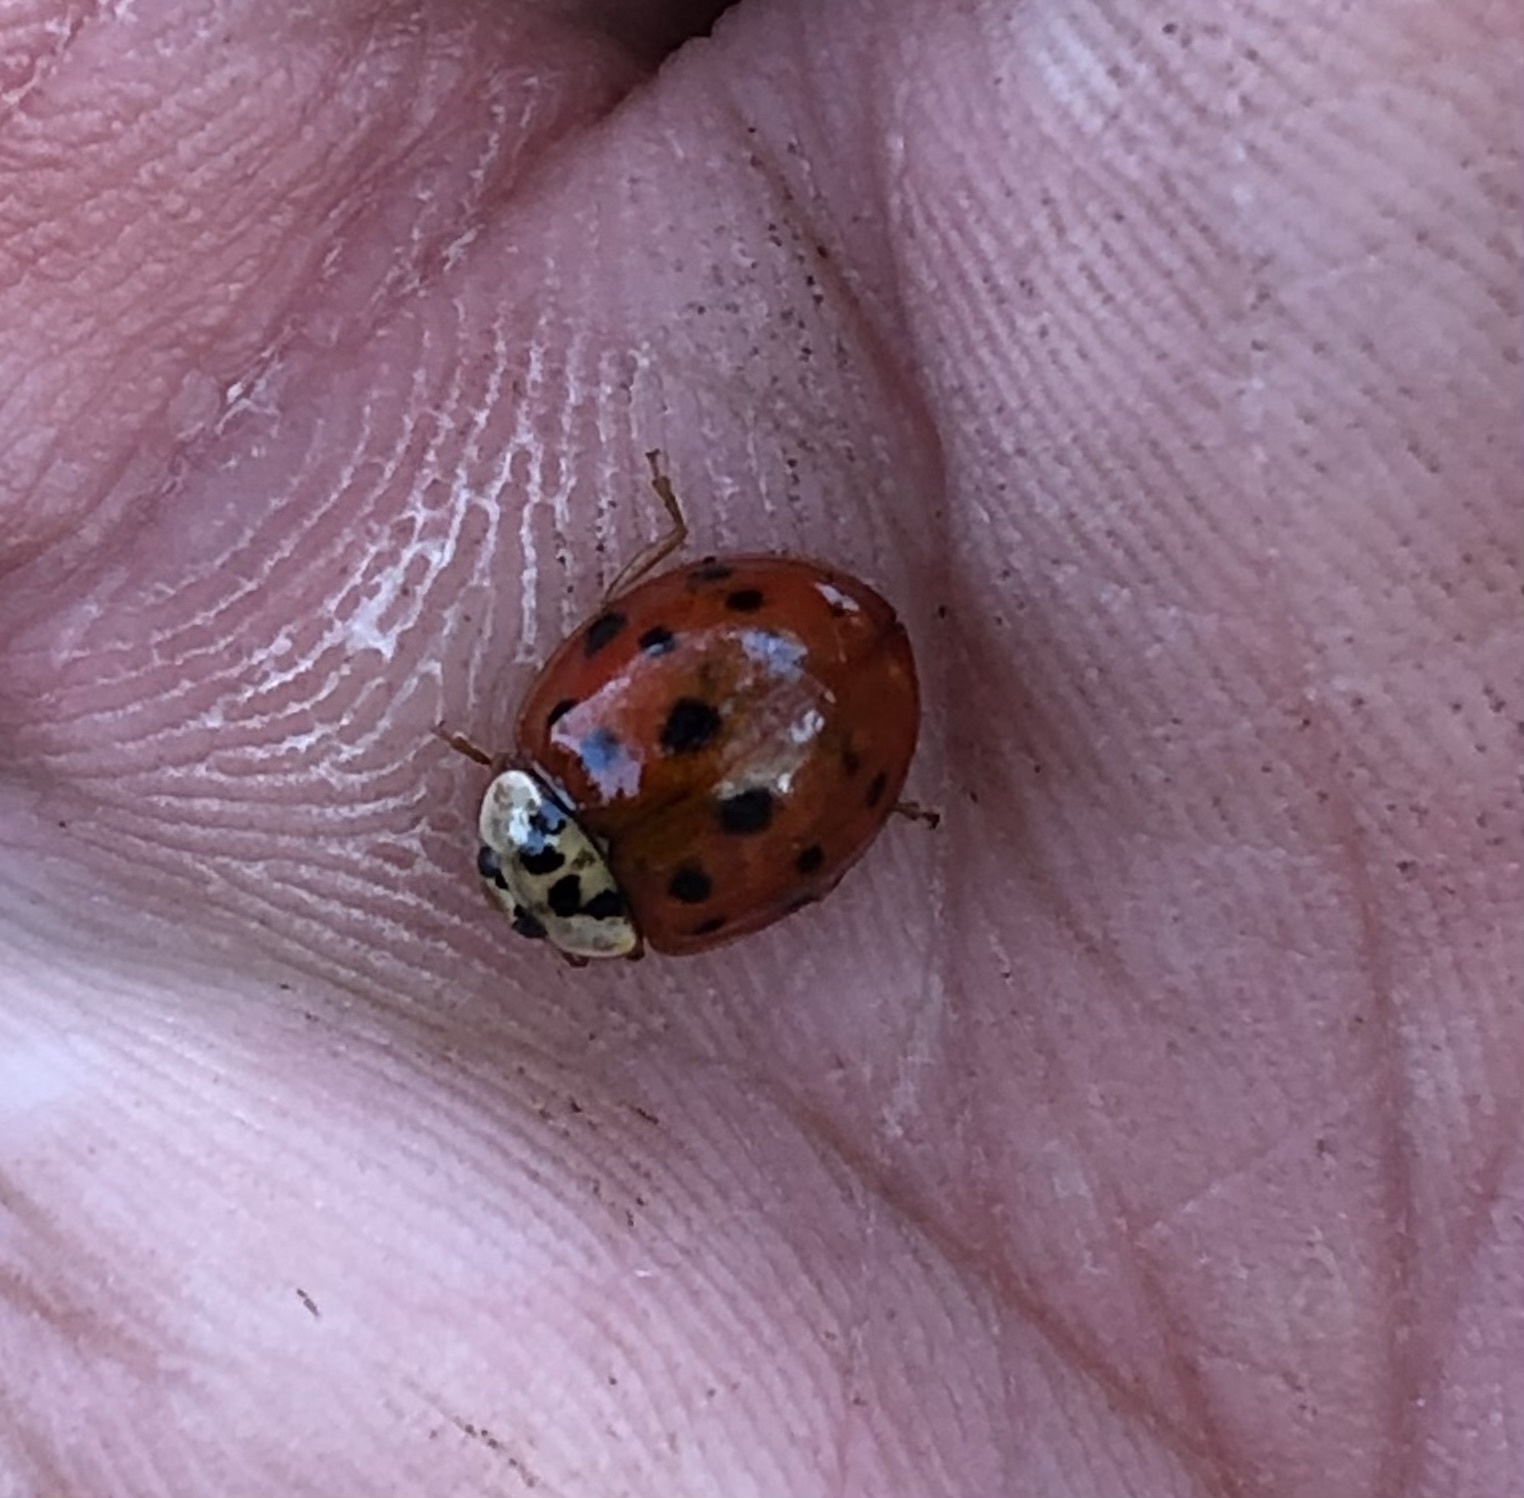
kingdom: Animalia
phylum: Arthropoda
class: Insecta
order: Coleoptera
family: Coccinellidae
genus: Harmonia
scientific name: Harmonia axyridis
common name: Harlequin ladybird
